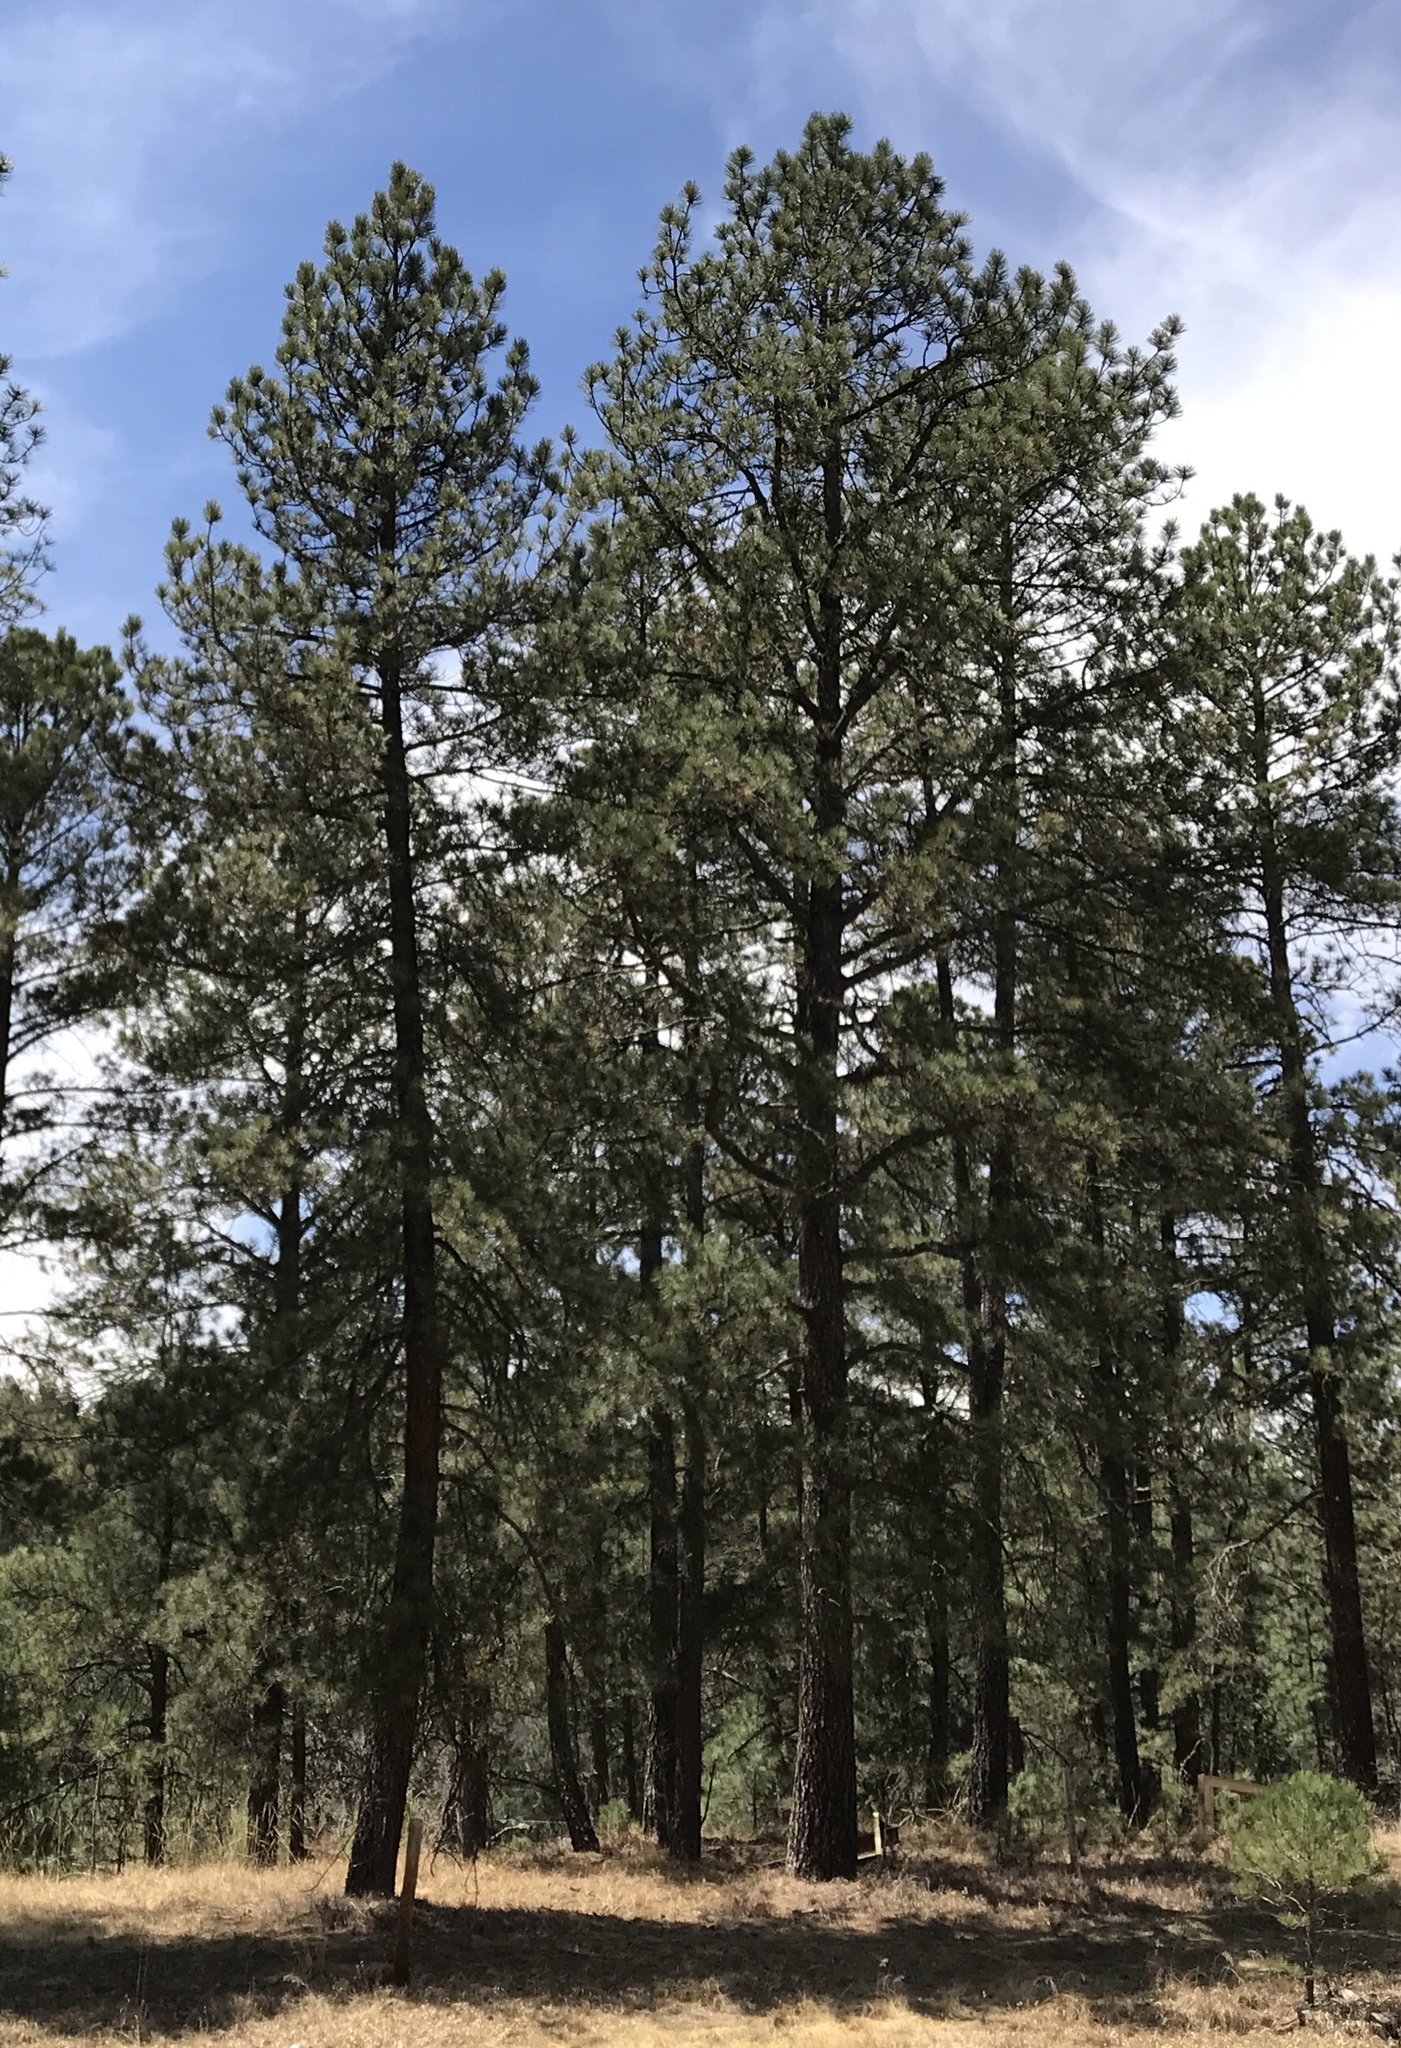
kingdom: Plantae
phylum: Tracheophyta
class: Pinopsida
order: Pinales
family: Pinaceae
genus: Pinus
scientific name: Pinus ponderosa
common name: Western yellow-pine
